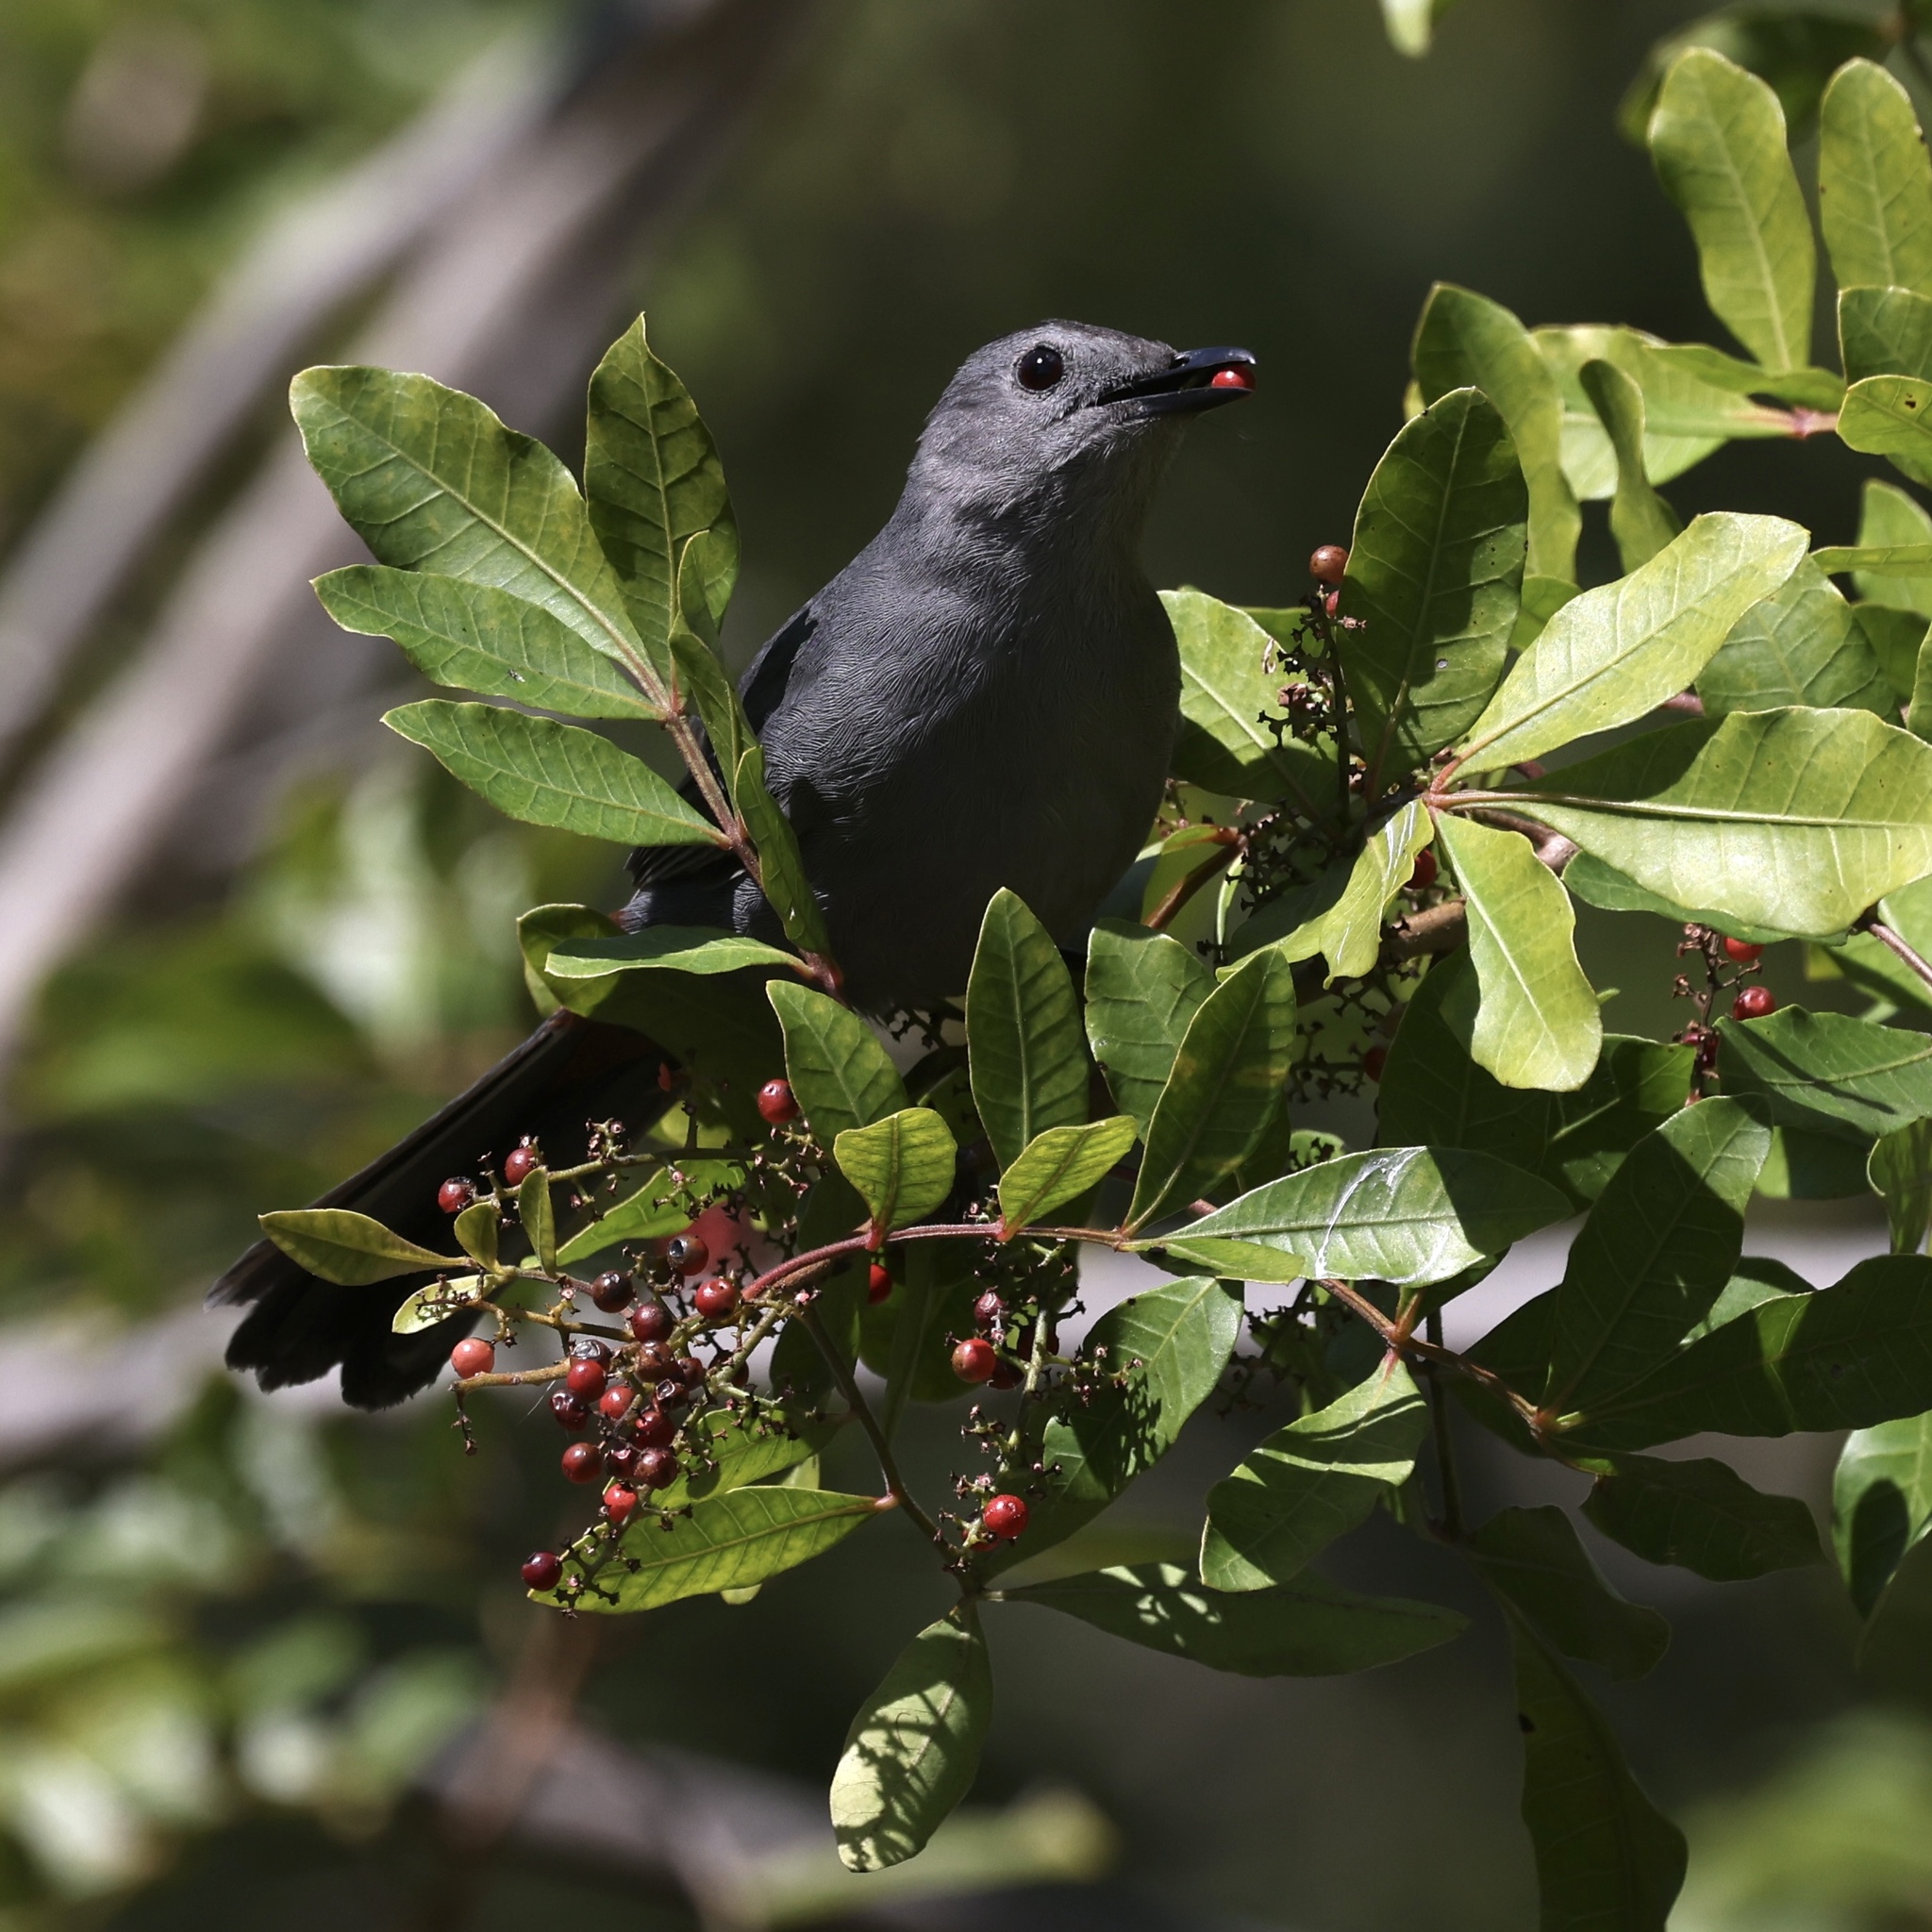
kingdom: Animalia
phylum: Chordata
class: Aves
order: Passeriformes
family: Mimidae
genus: Dumetella
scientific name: Dumetella carolinensis
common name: Gray catbird
